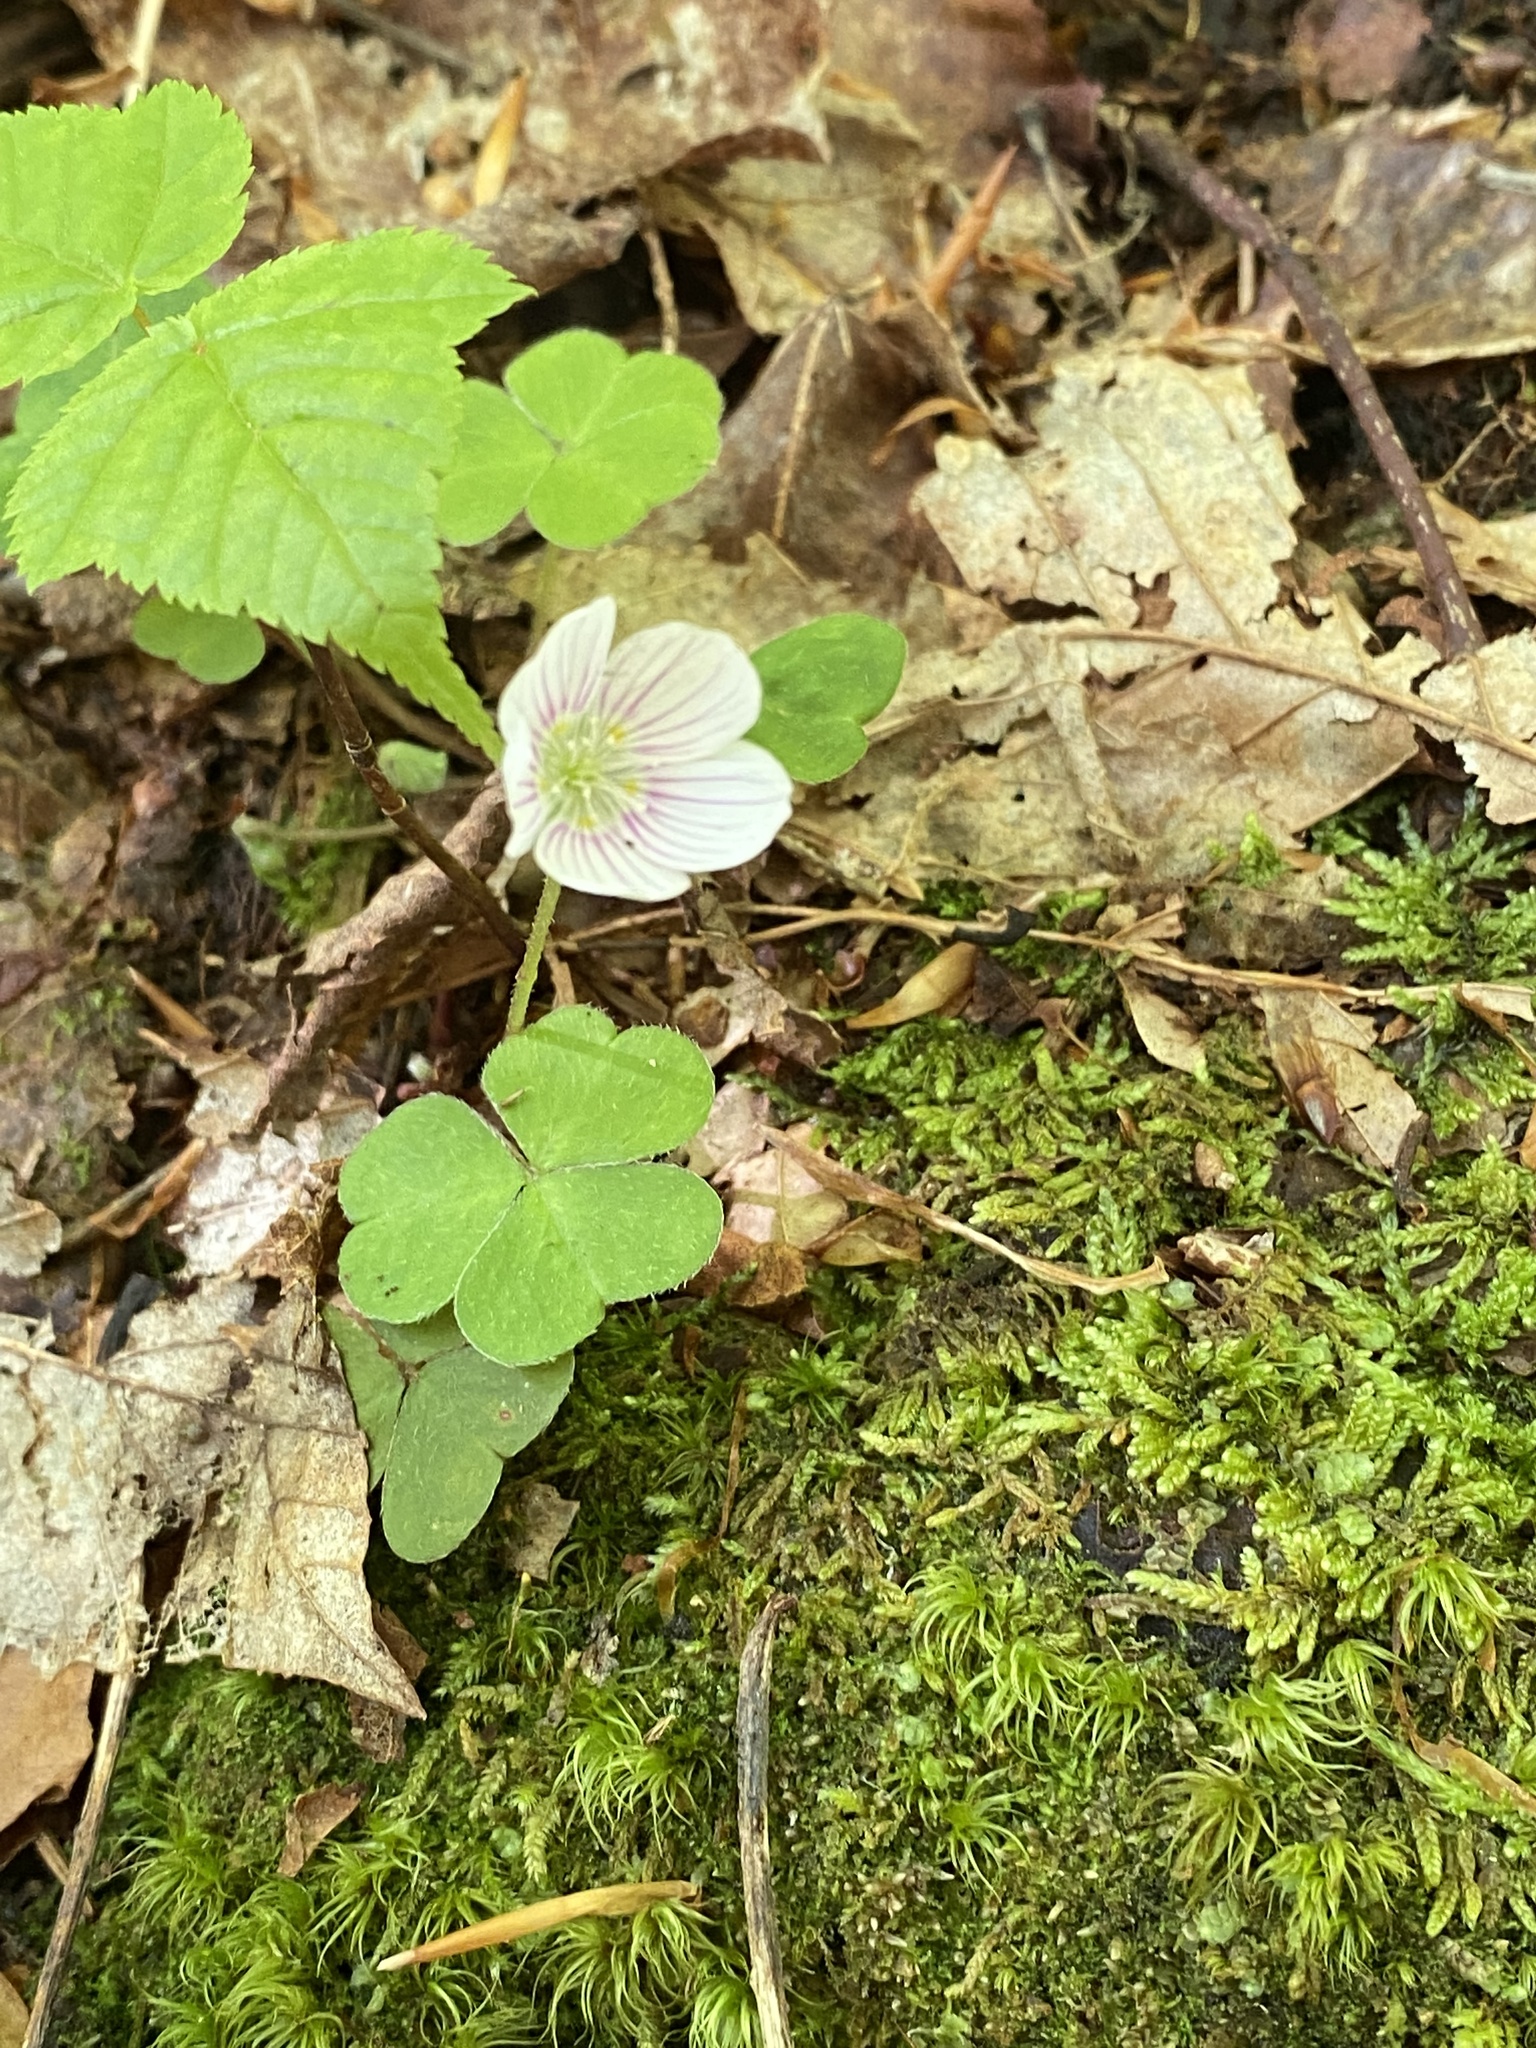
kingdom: Plantae
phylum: Tracheophyta
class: Magnoliopsida
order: Oxalidales
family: Oxalidaceae
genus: Oxalis
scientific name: Oxalis montana
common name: American wood-sorrel
